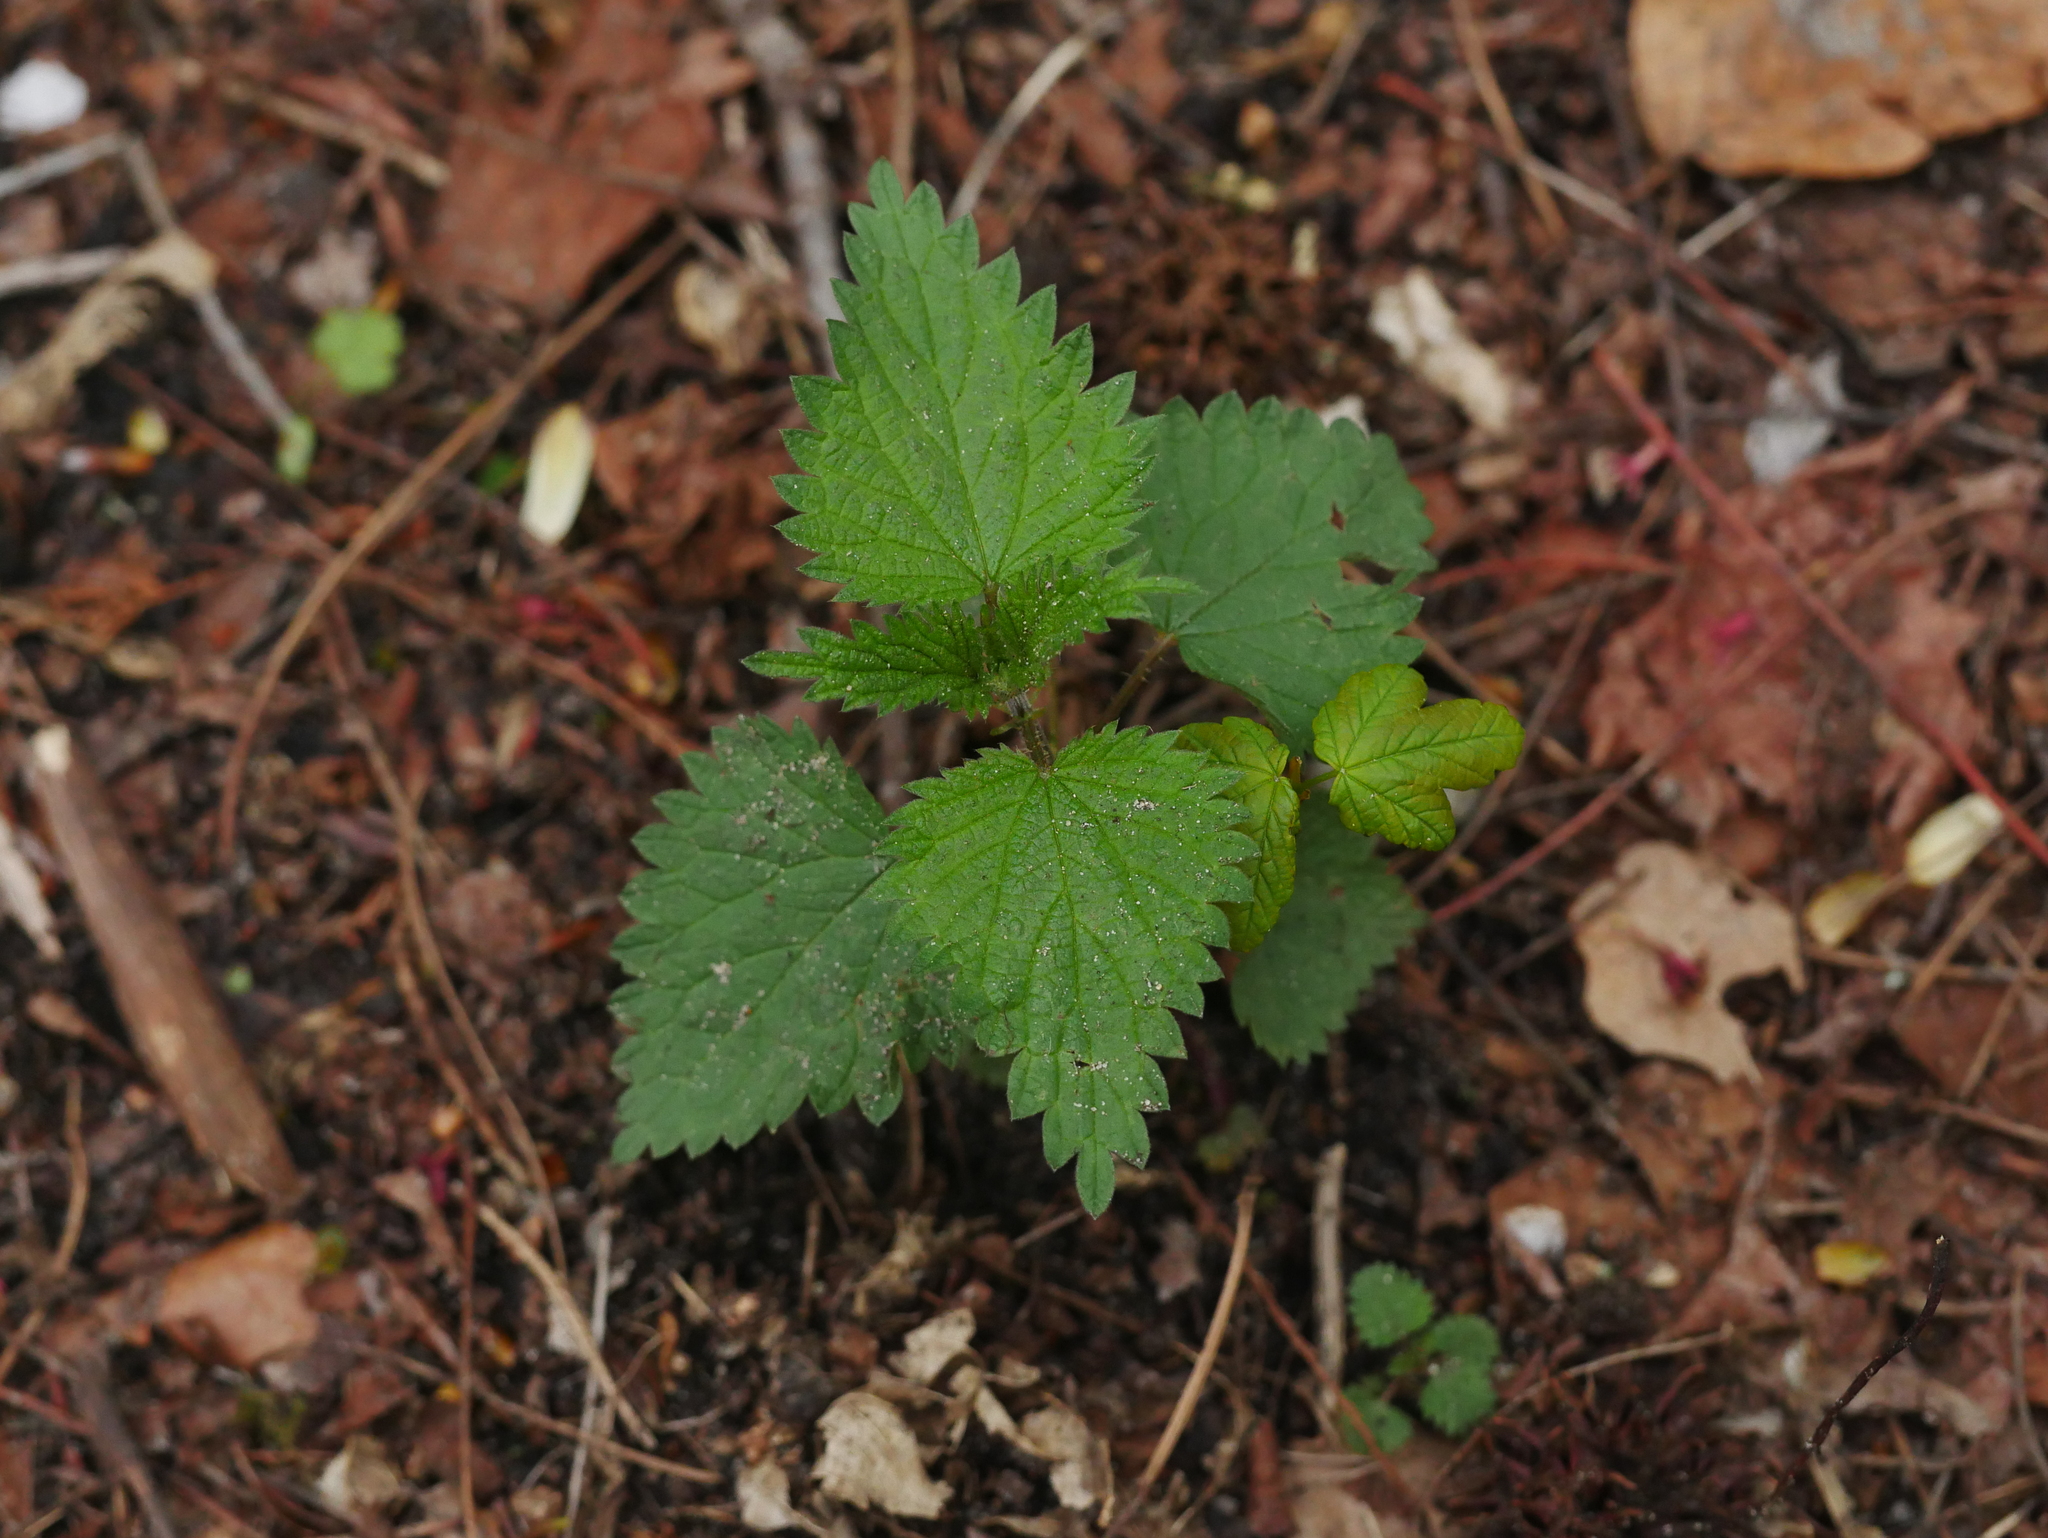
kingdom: Plantae
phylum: Tracheophyta
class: Magnoliopsida
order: Rosales
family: Urticaceae
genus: Urtica
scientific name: Urtica dioica
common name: Common nettle
